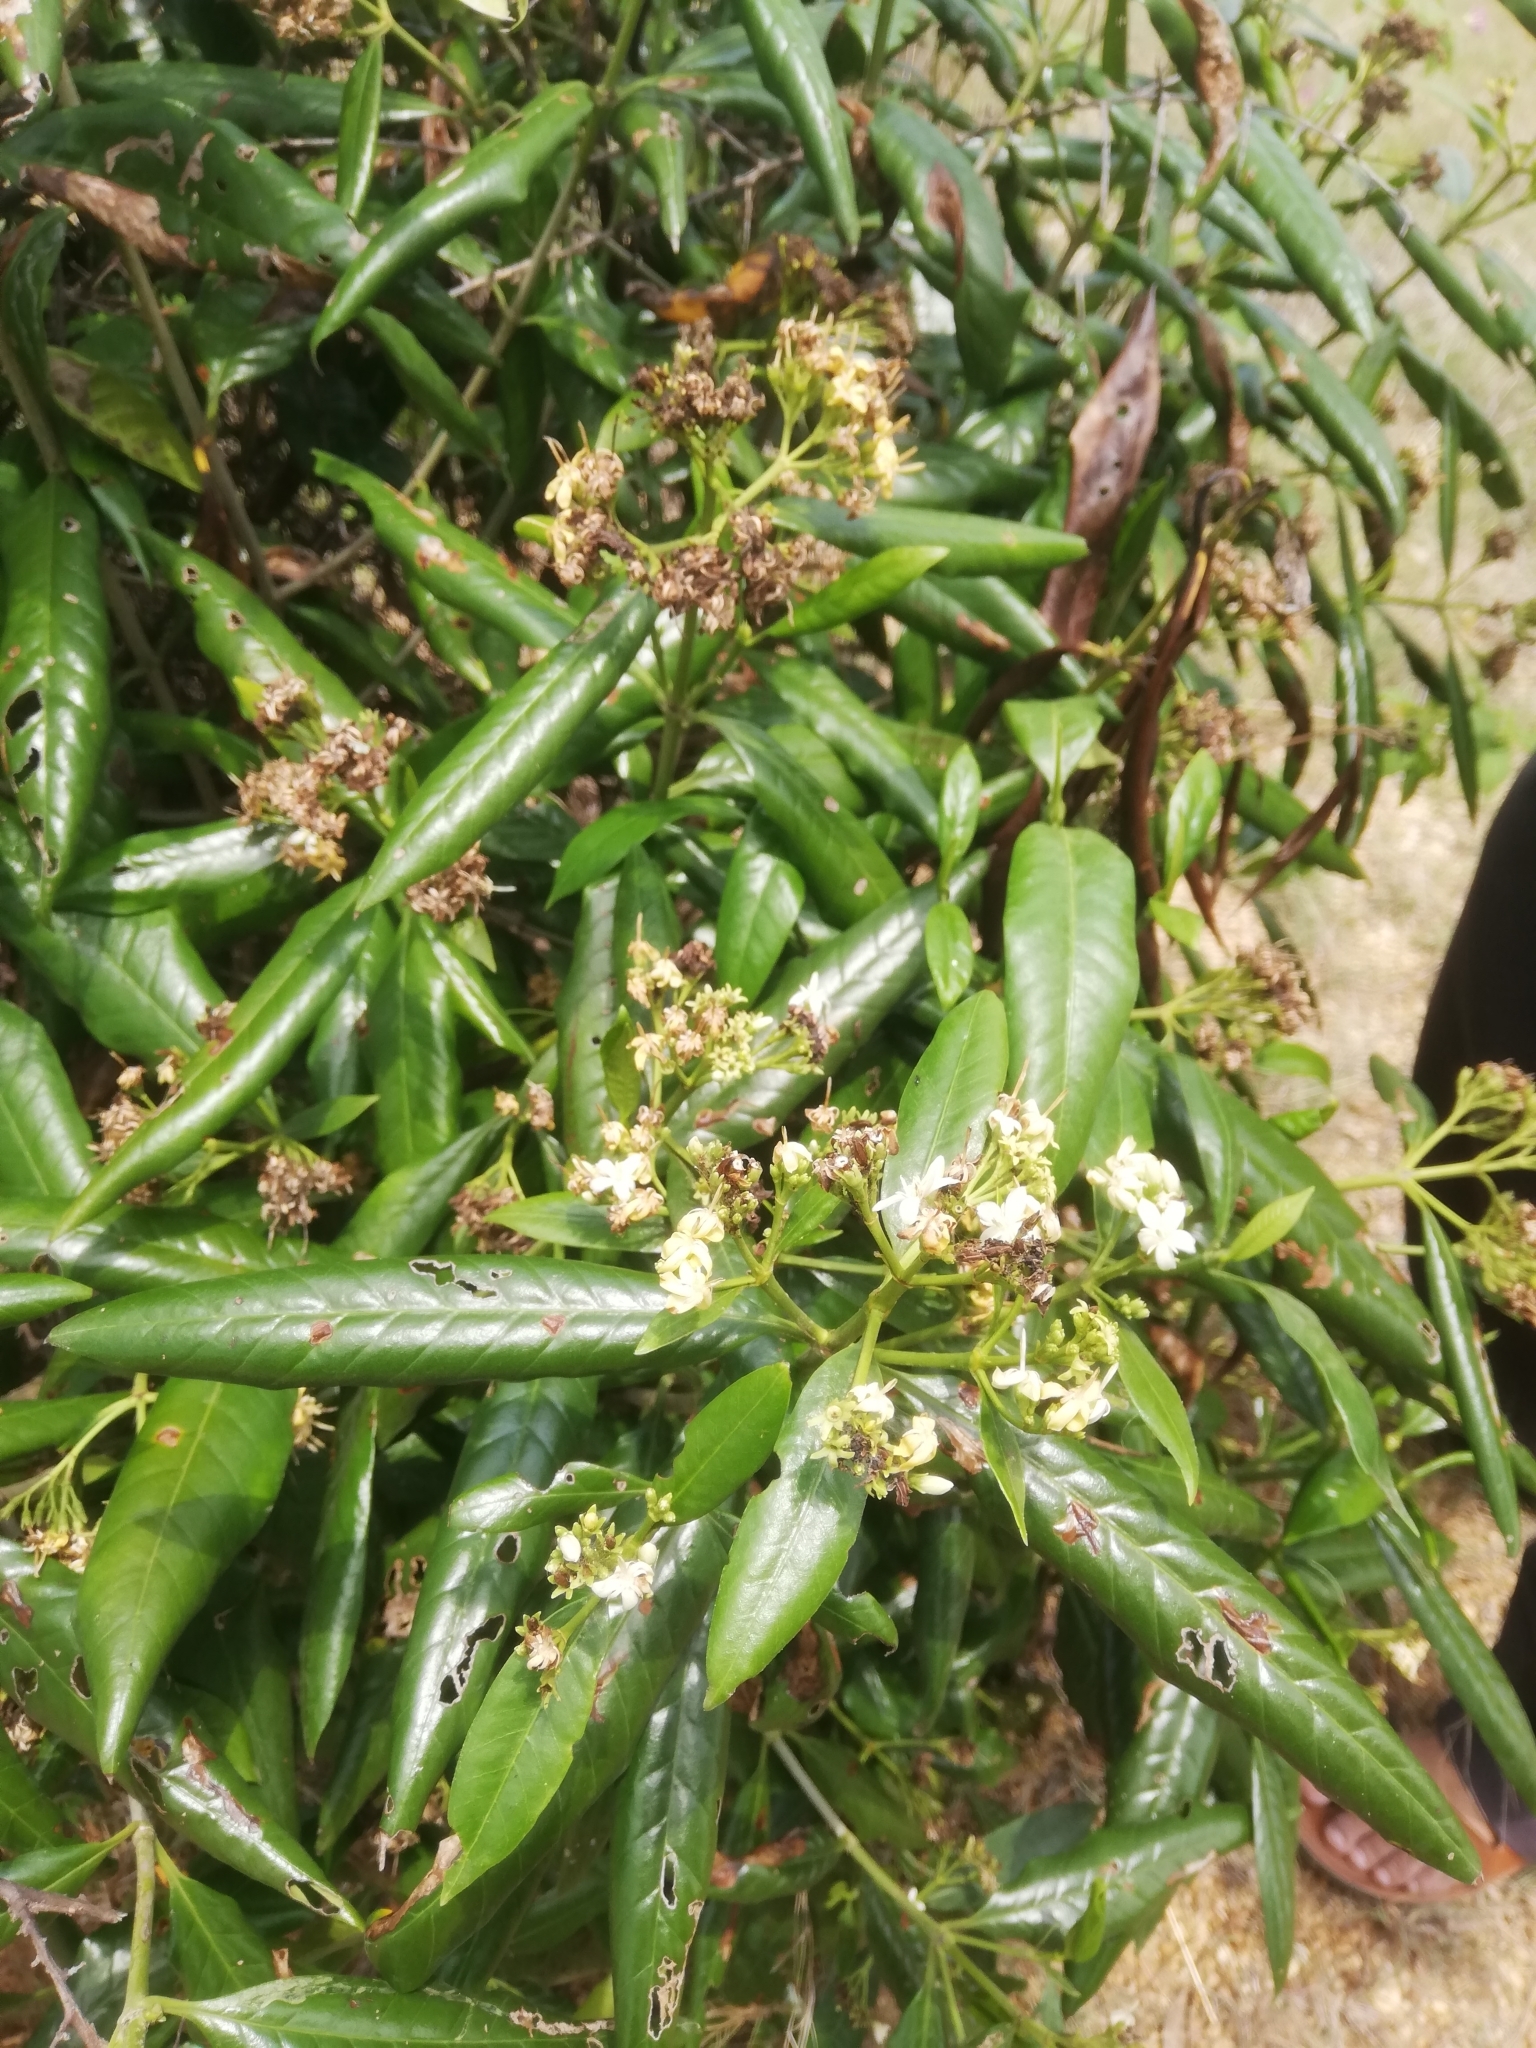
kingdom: Plantae
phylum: Tracheophyta
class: Magnoliopsida
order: Gentianales
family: Rubiaceae
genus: Tarenna
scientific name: Tarenna asiatica
